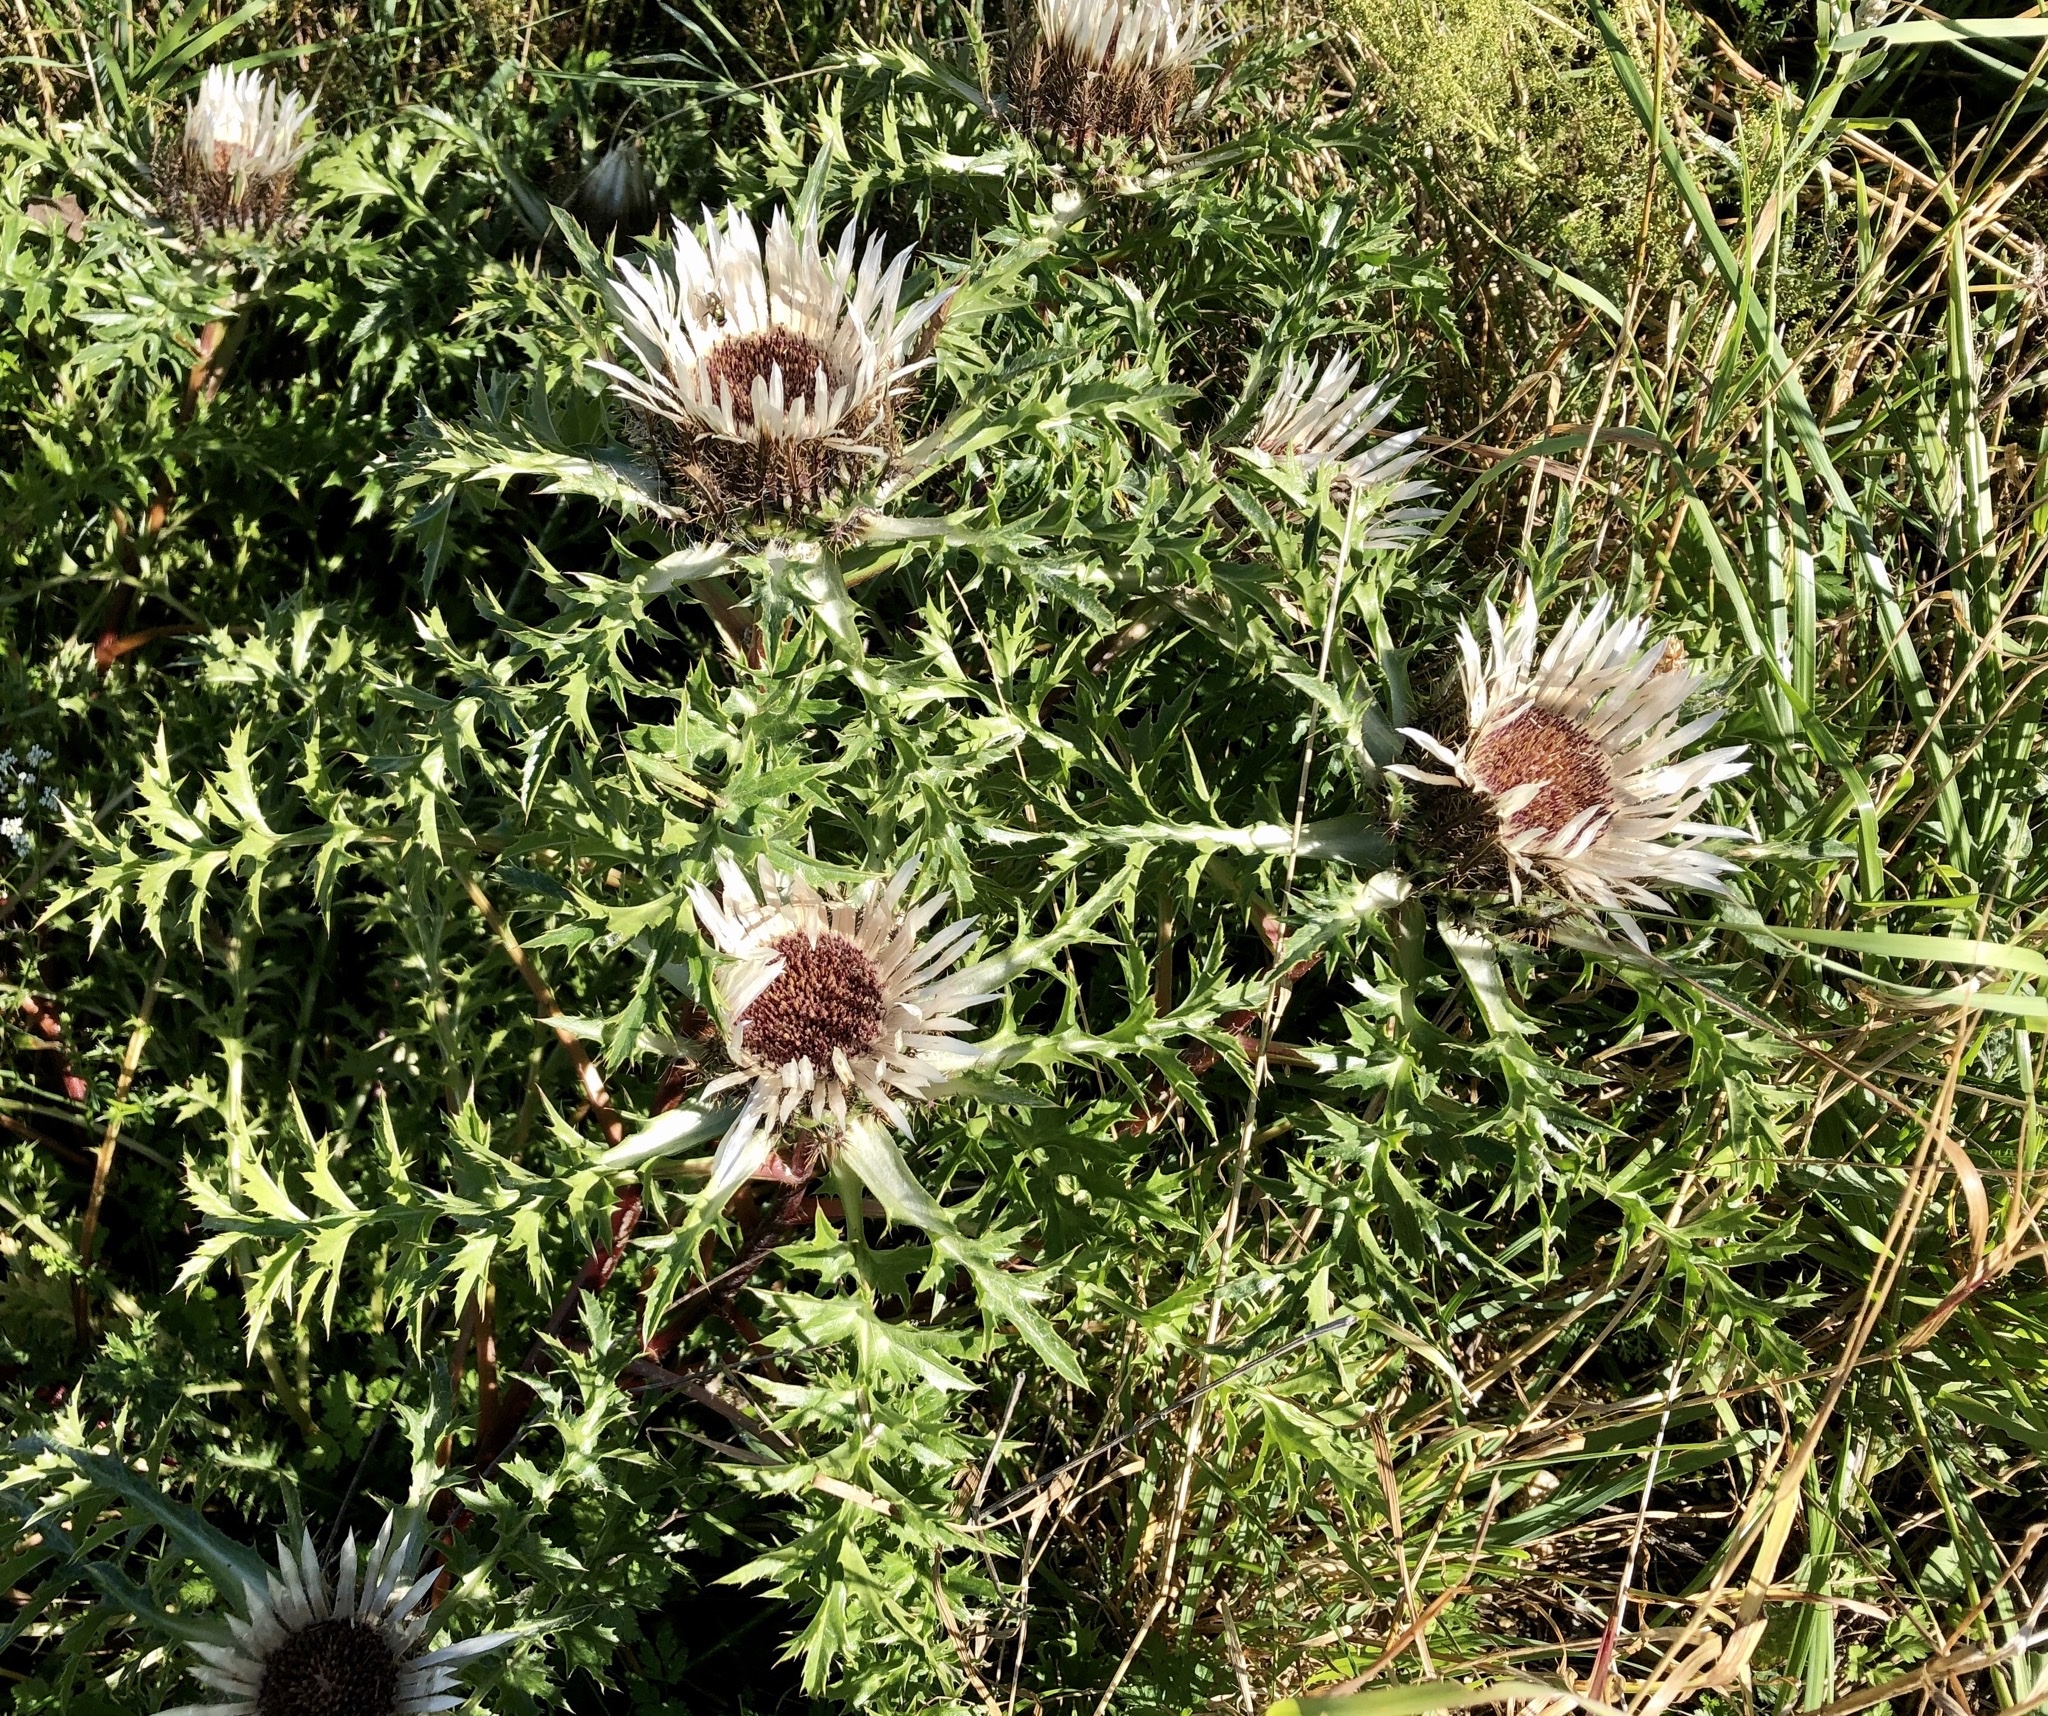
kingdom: Plantae
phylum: Tracheophyta
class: Magnoliopsida
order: Asterales
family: Asteraceae
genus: Carlina
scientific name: Carlina acaulis
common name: Stemless carline thistle
